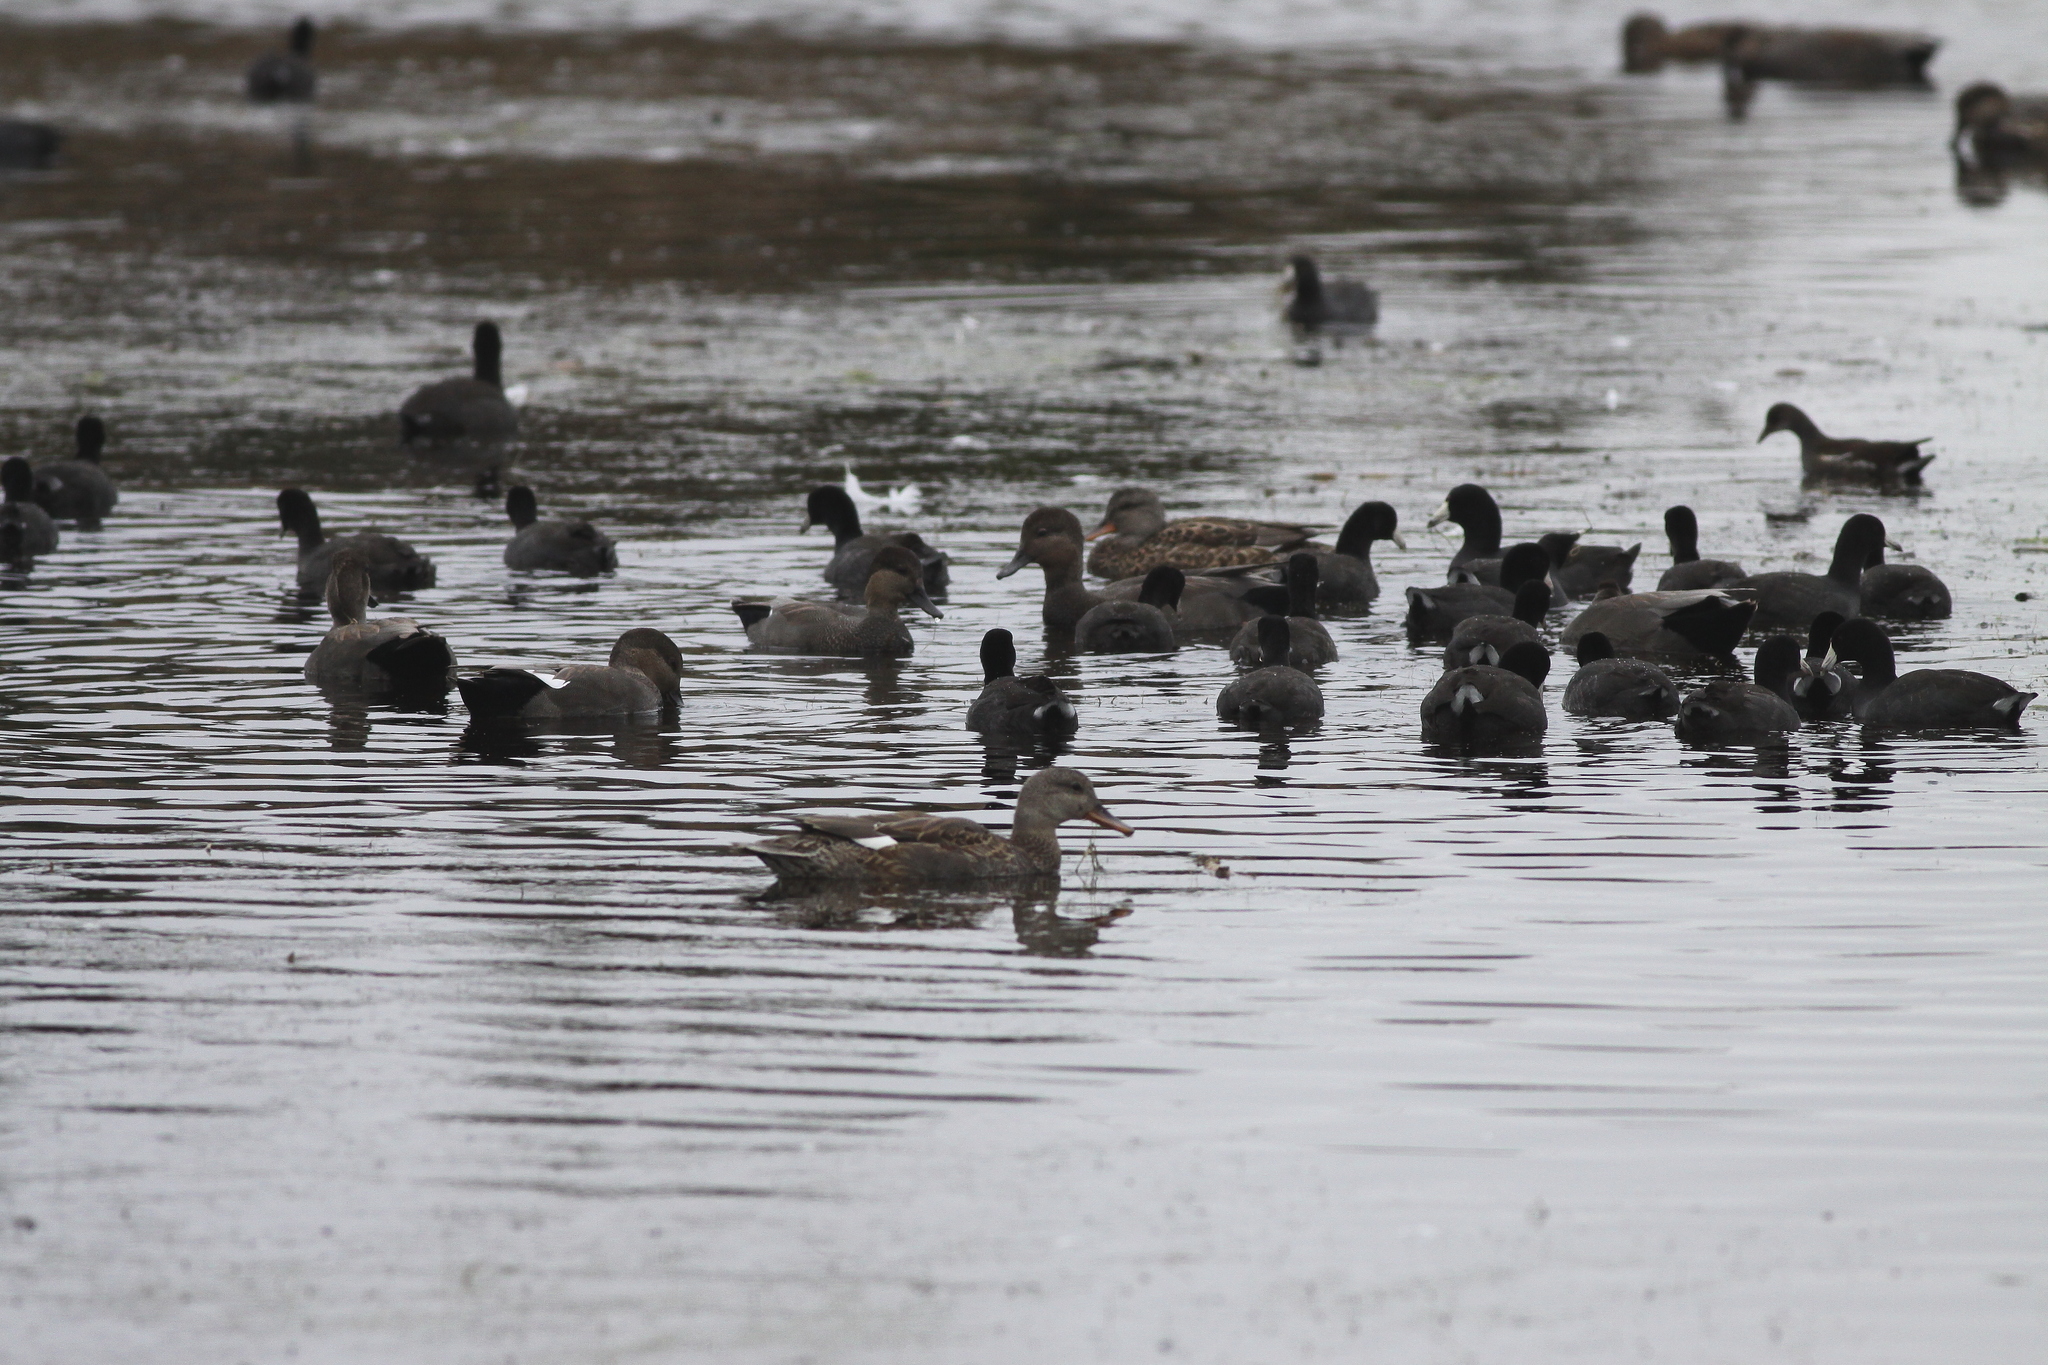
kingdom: Animalia
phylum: Chordata
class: Aves
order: Gruiformes
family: Rallidae
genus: Fulica
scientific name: Fulica americana
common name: American coot
